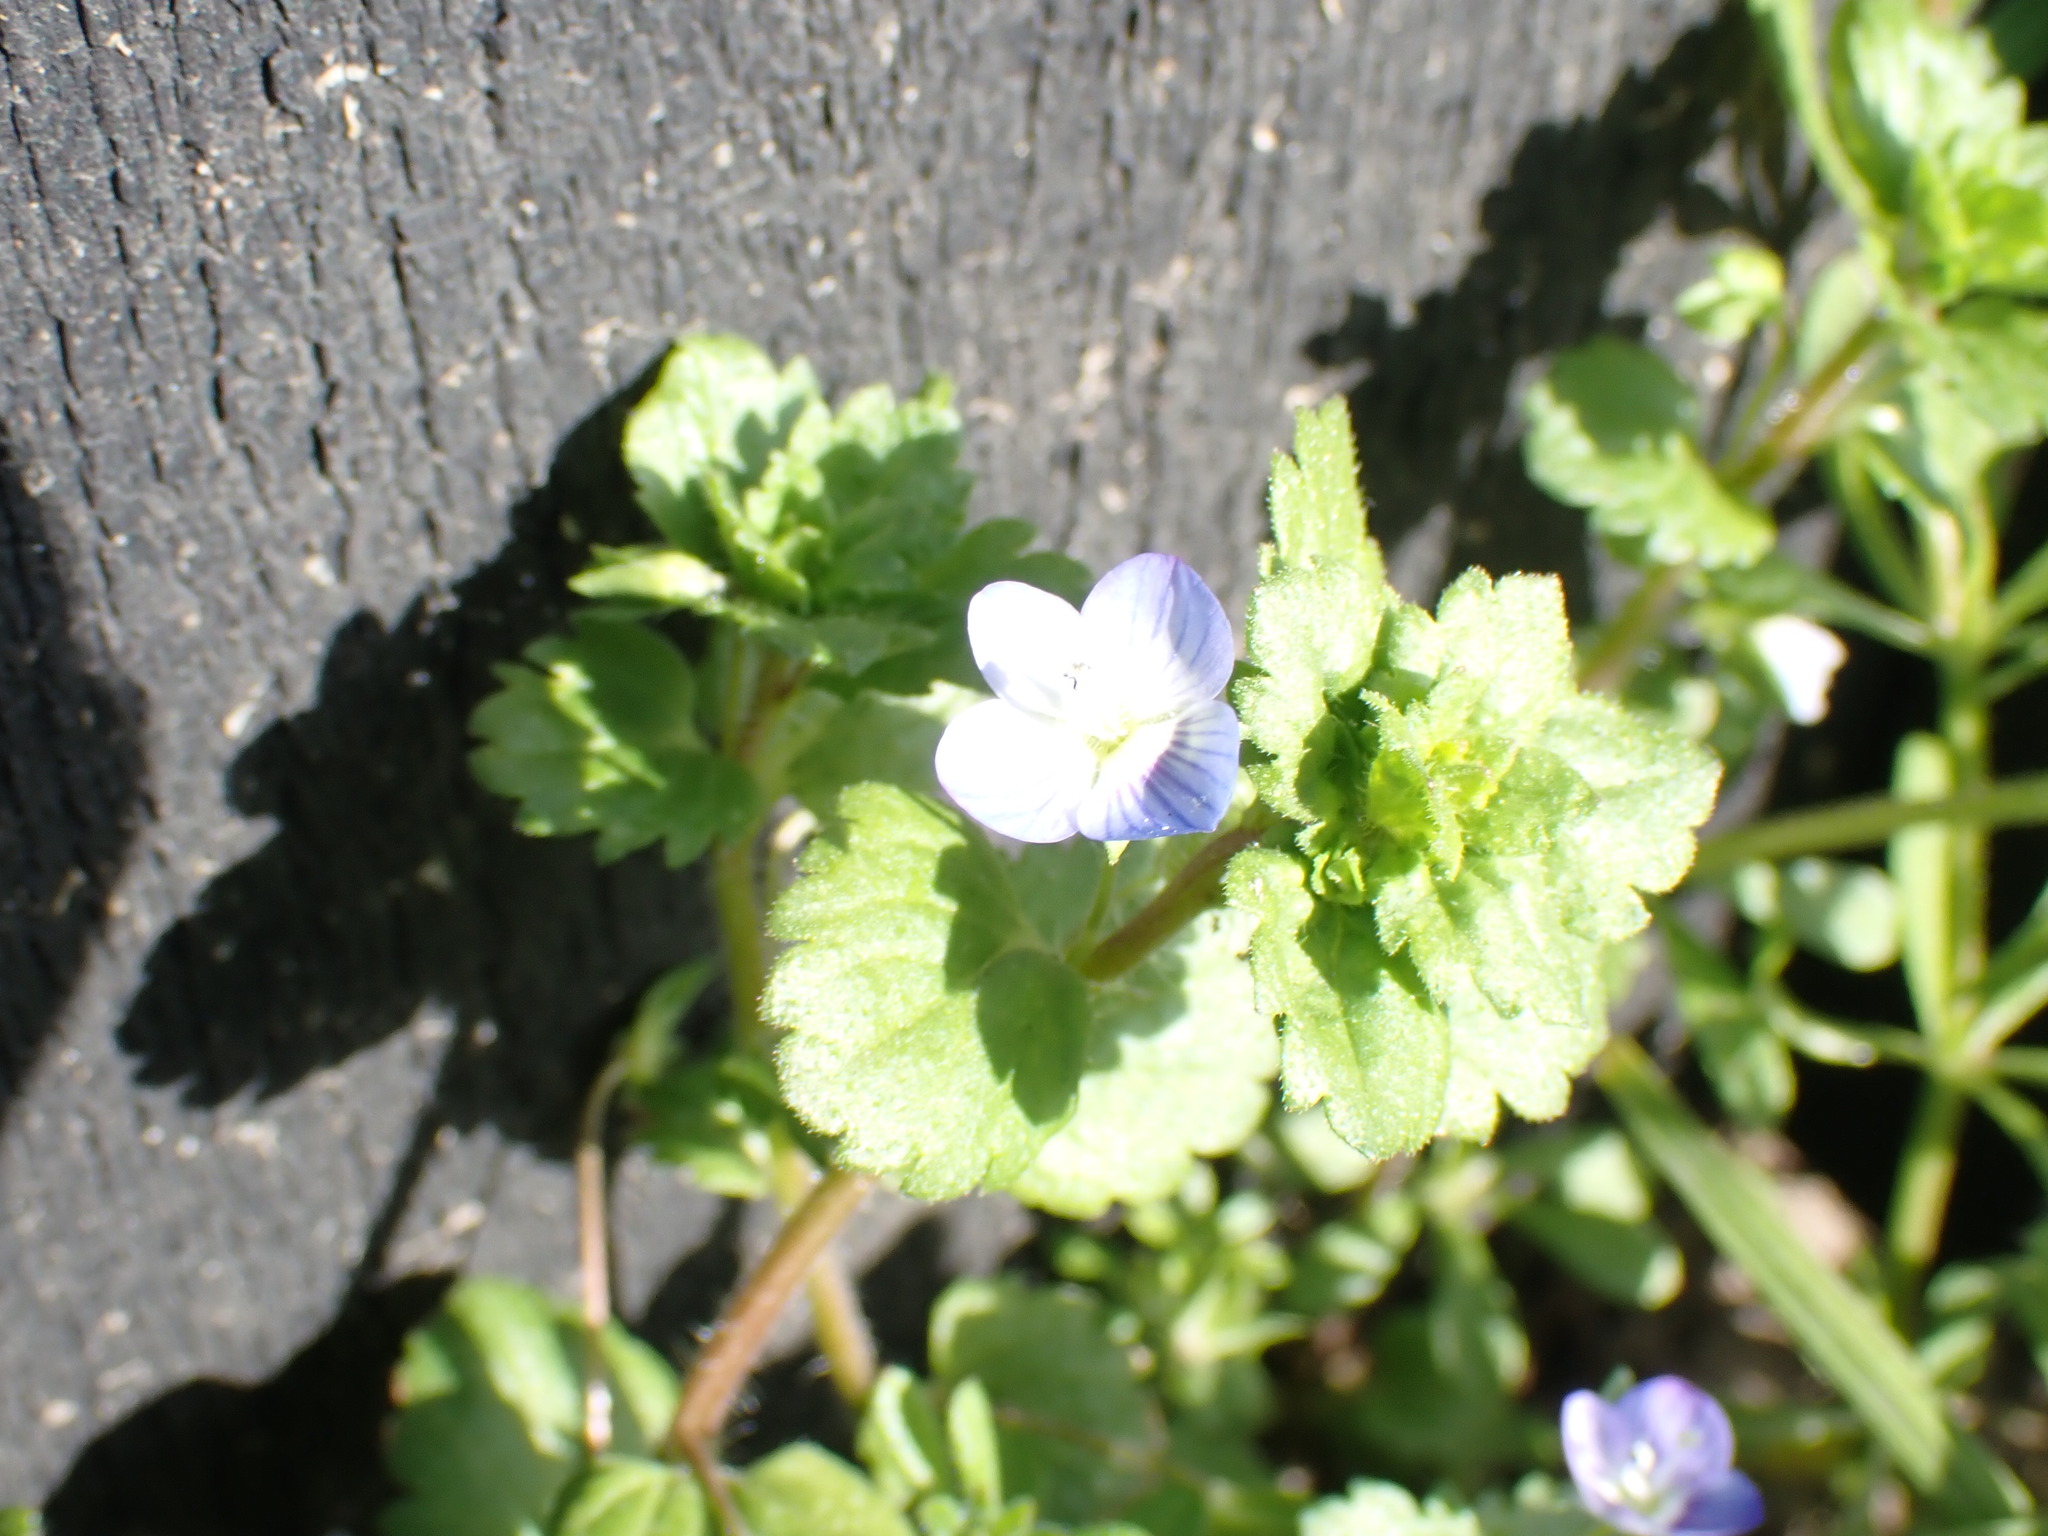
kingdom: Plantae
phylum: Tracheophyta
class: Magnoliopsida
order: Lamiales
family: Plantaginaceae
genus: Veronica
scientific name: Veronica persica
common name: Common field-speedwell
